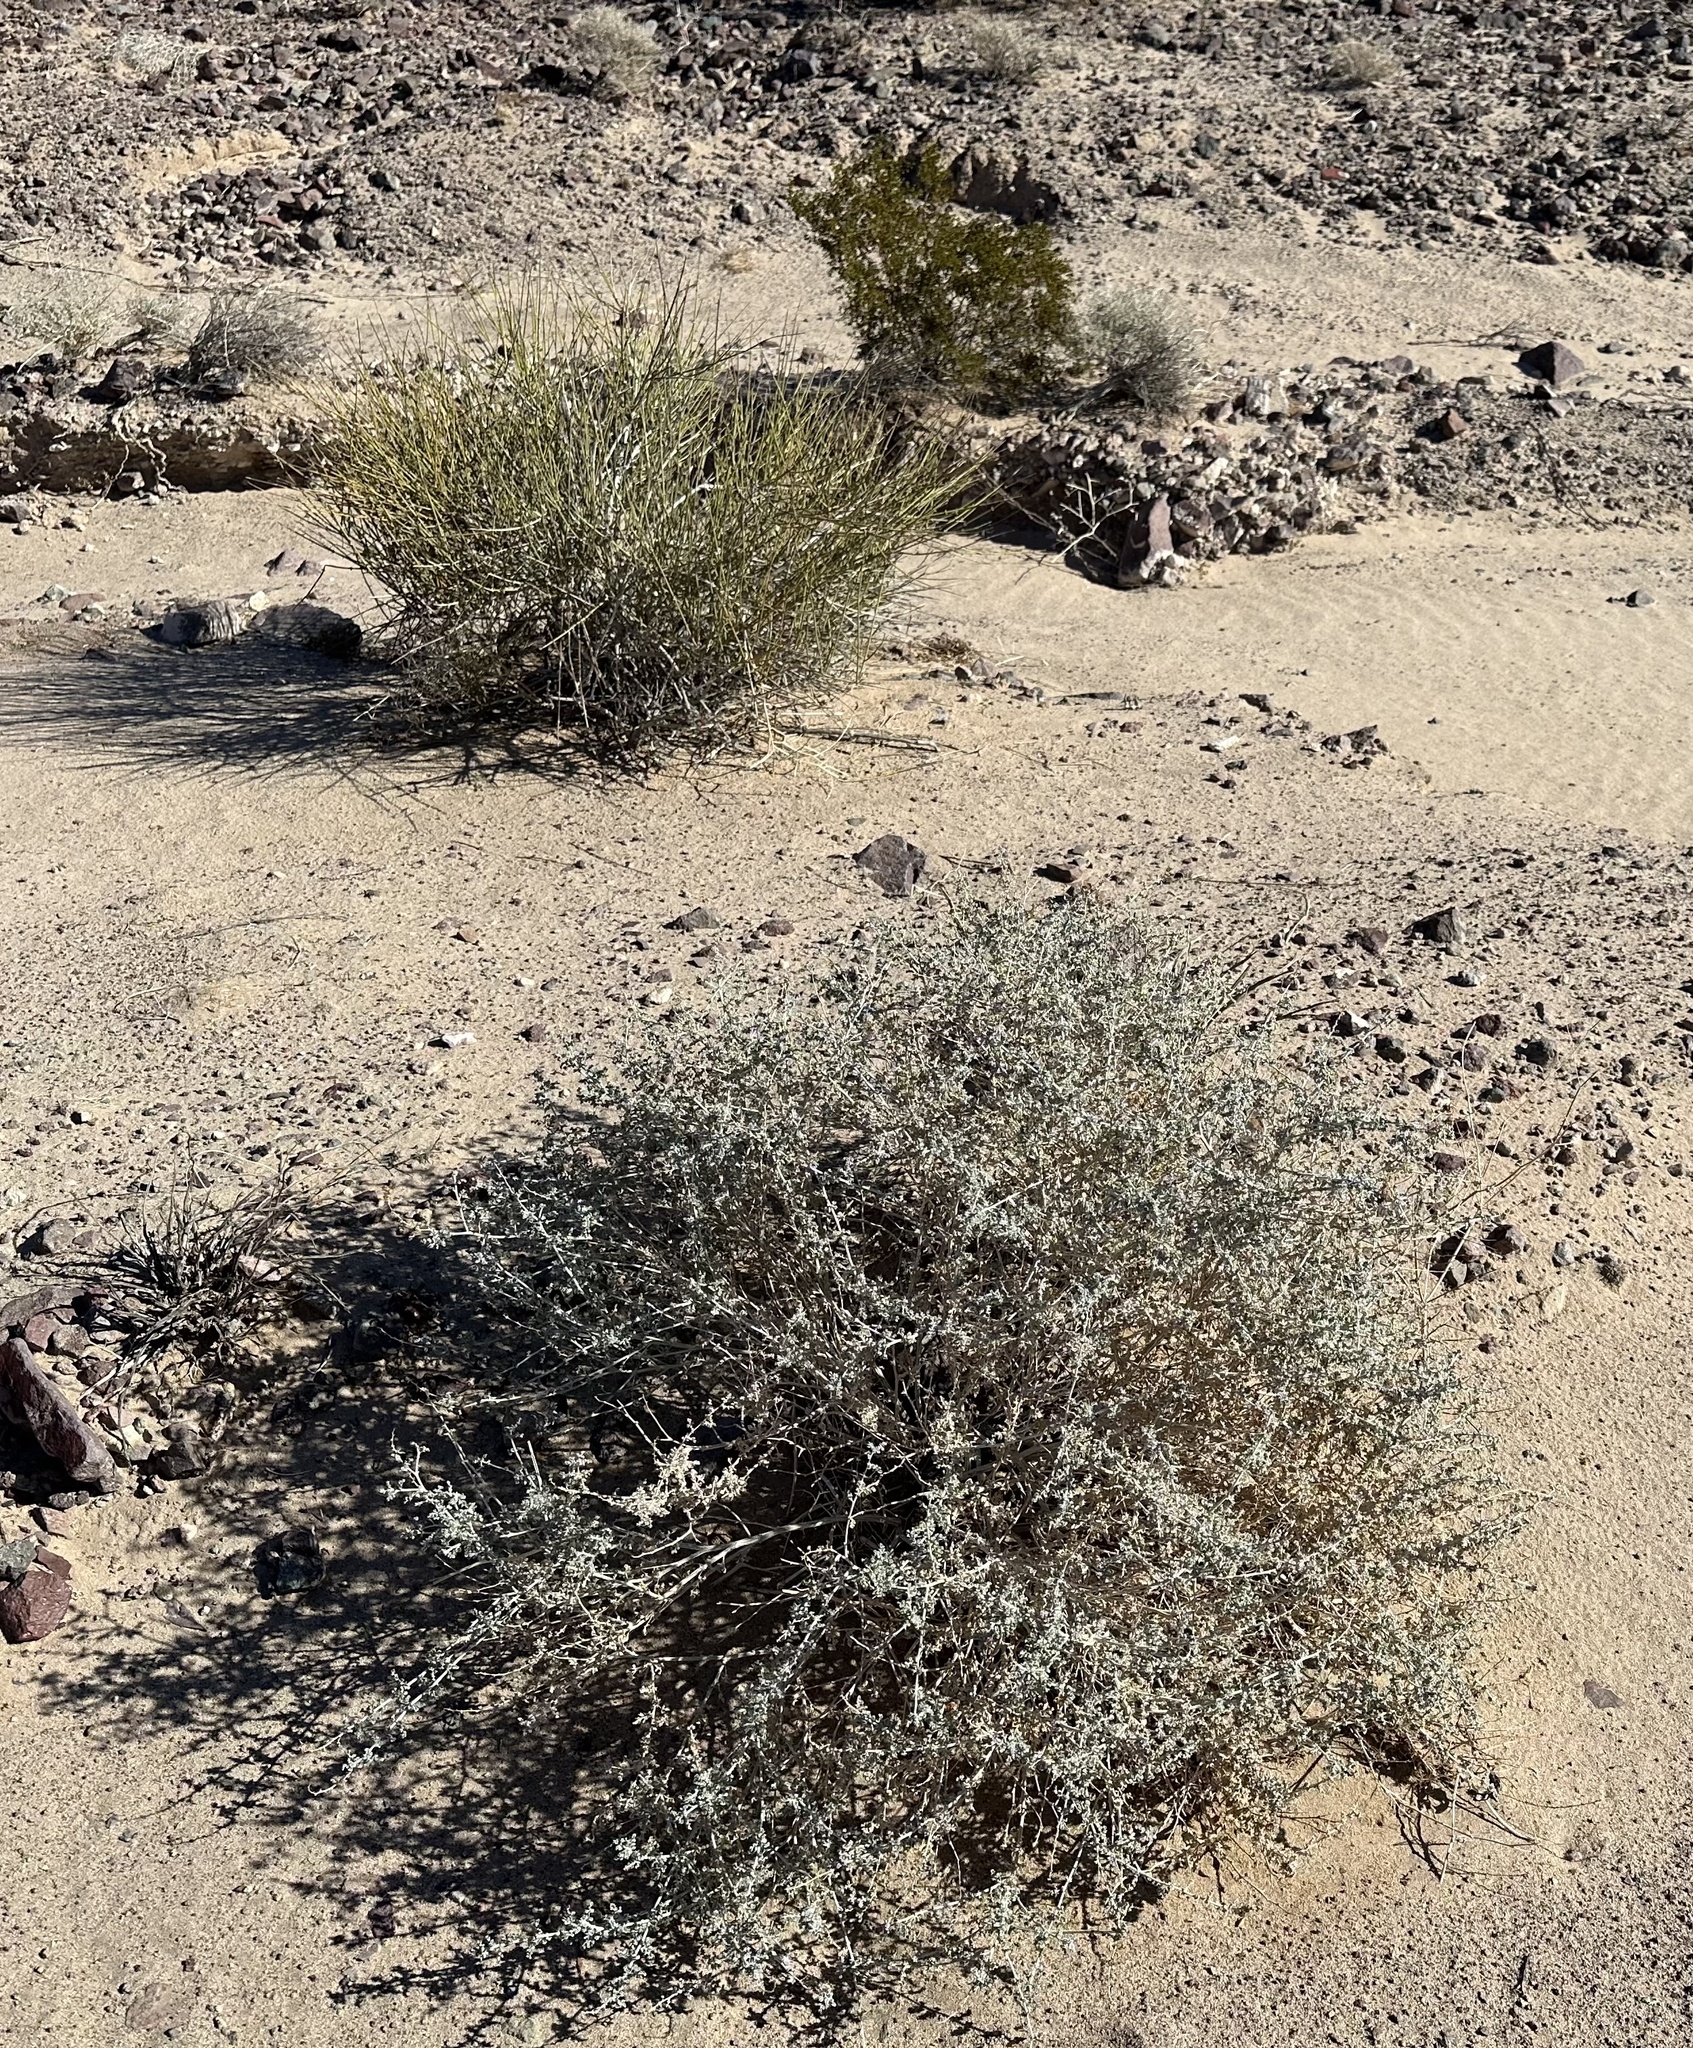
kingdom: Plantae
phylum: Tracheophyta
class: Magnoliopsida
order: Asterales
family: Asteraceae
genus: Ambrosia
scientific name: Ambrosia dumosa
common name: Bur-sage
